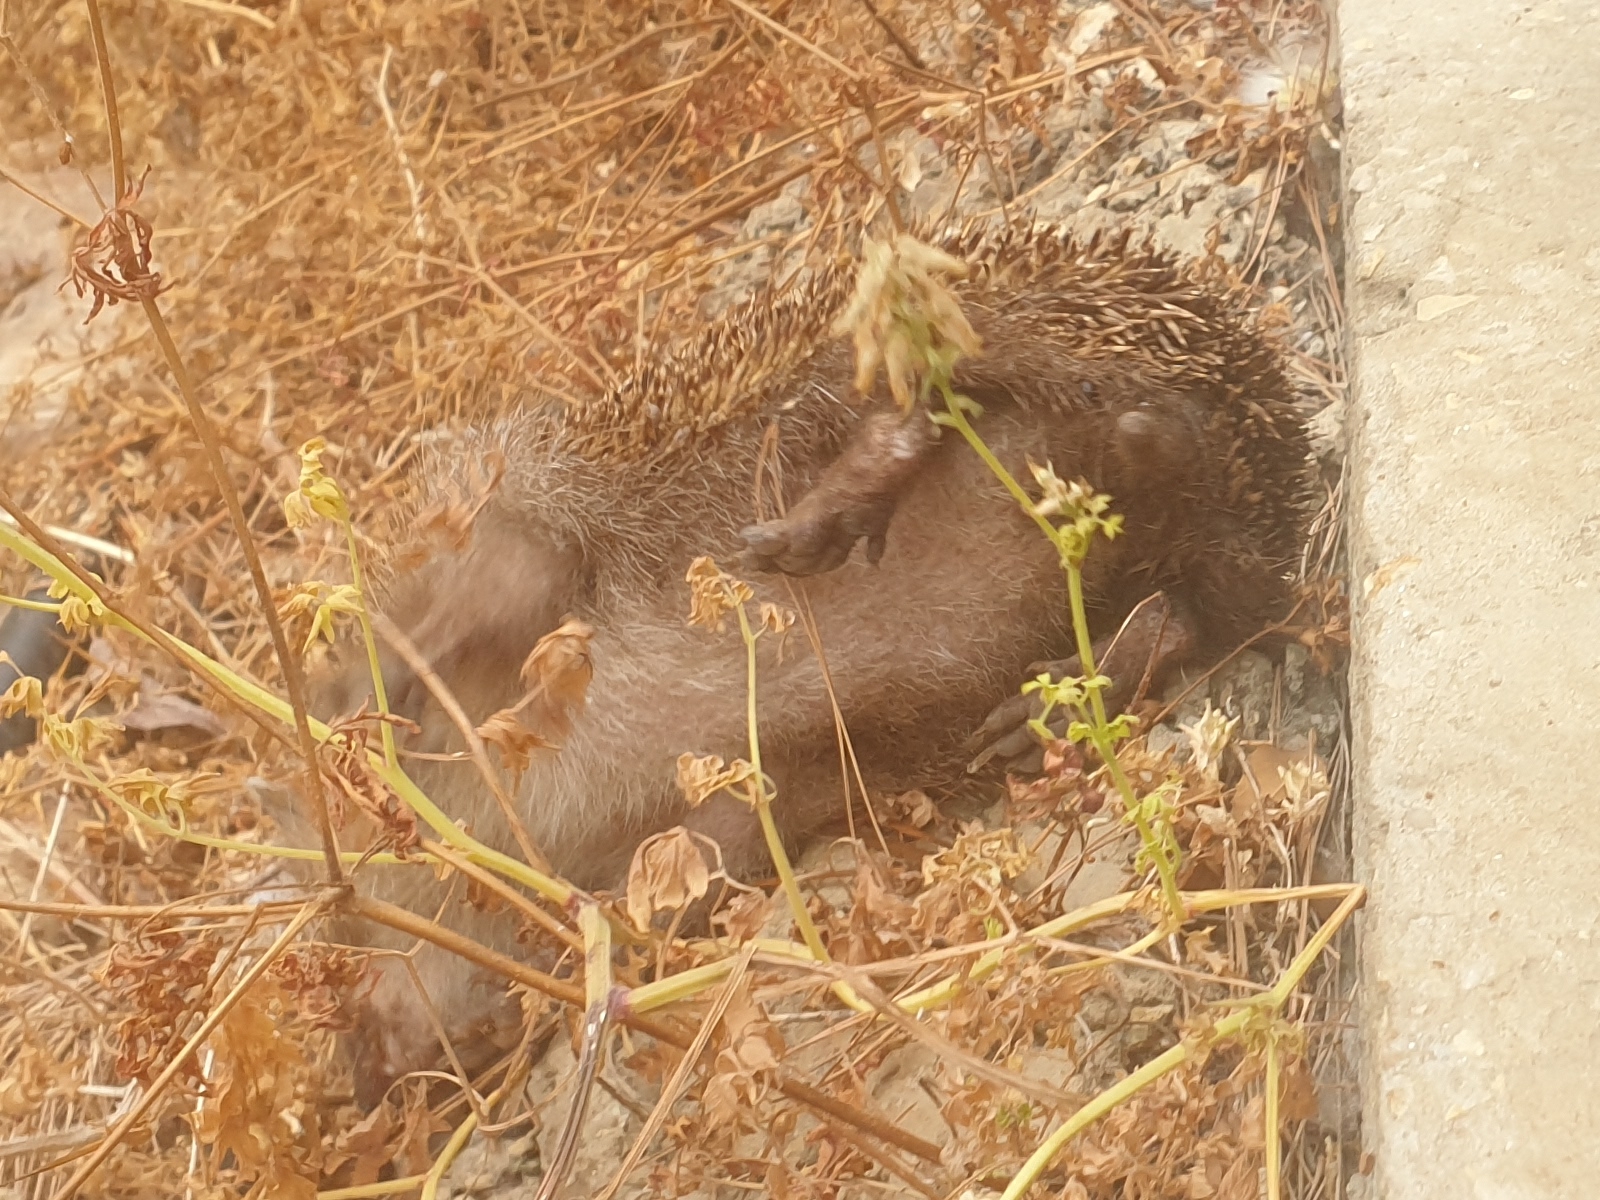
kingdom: Animalia
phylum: Chordata
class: Mammalia
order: Erinaceomorpha
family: Erinaceidae
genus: Erinaceus
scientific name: Erinaceus concolor
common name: Southern white-breasted hedgehog
